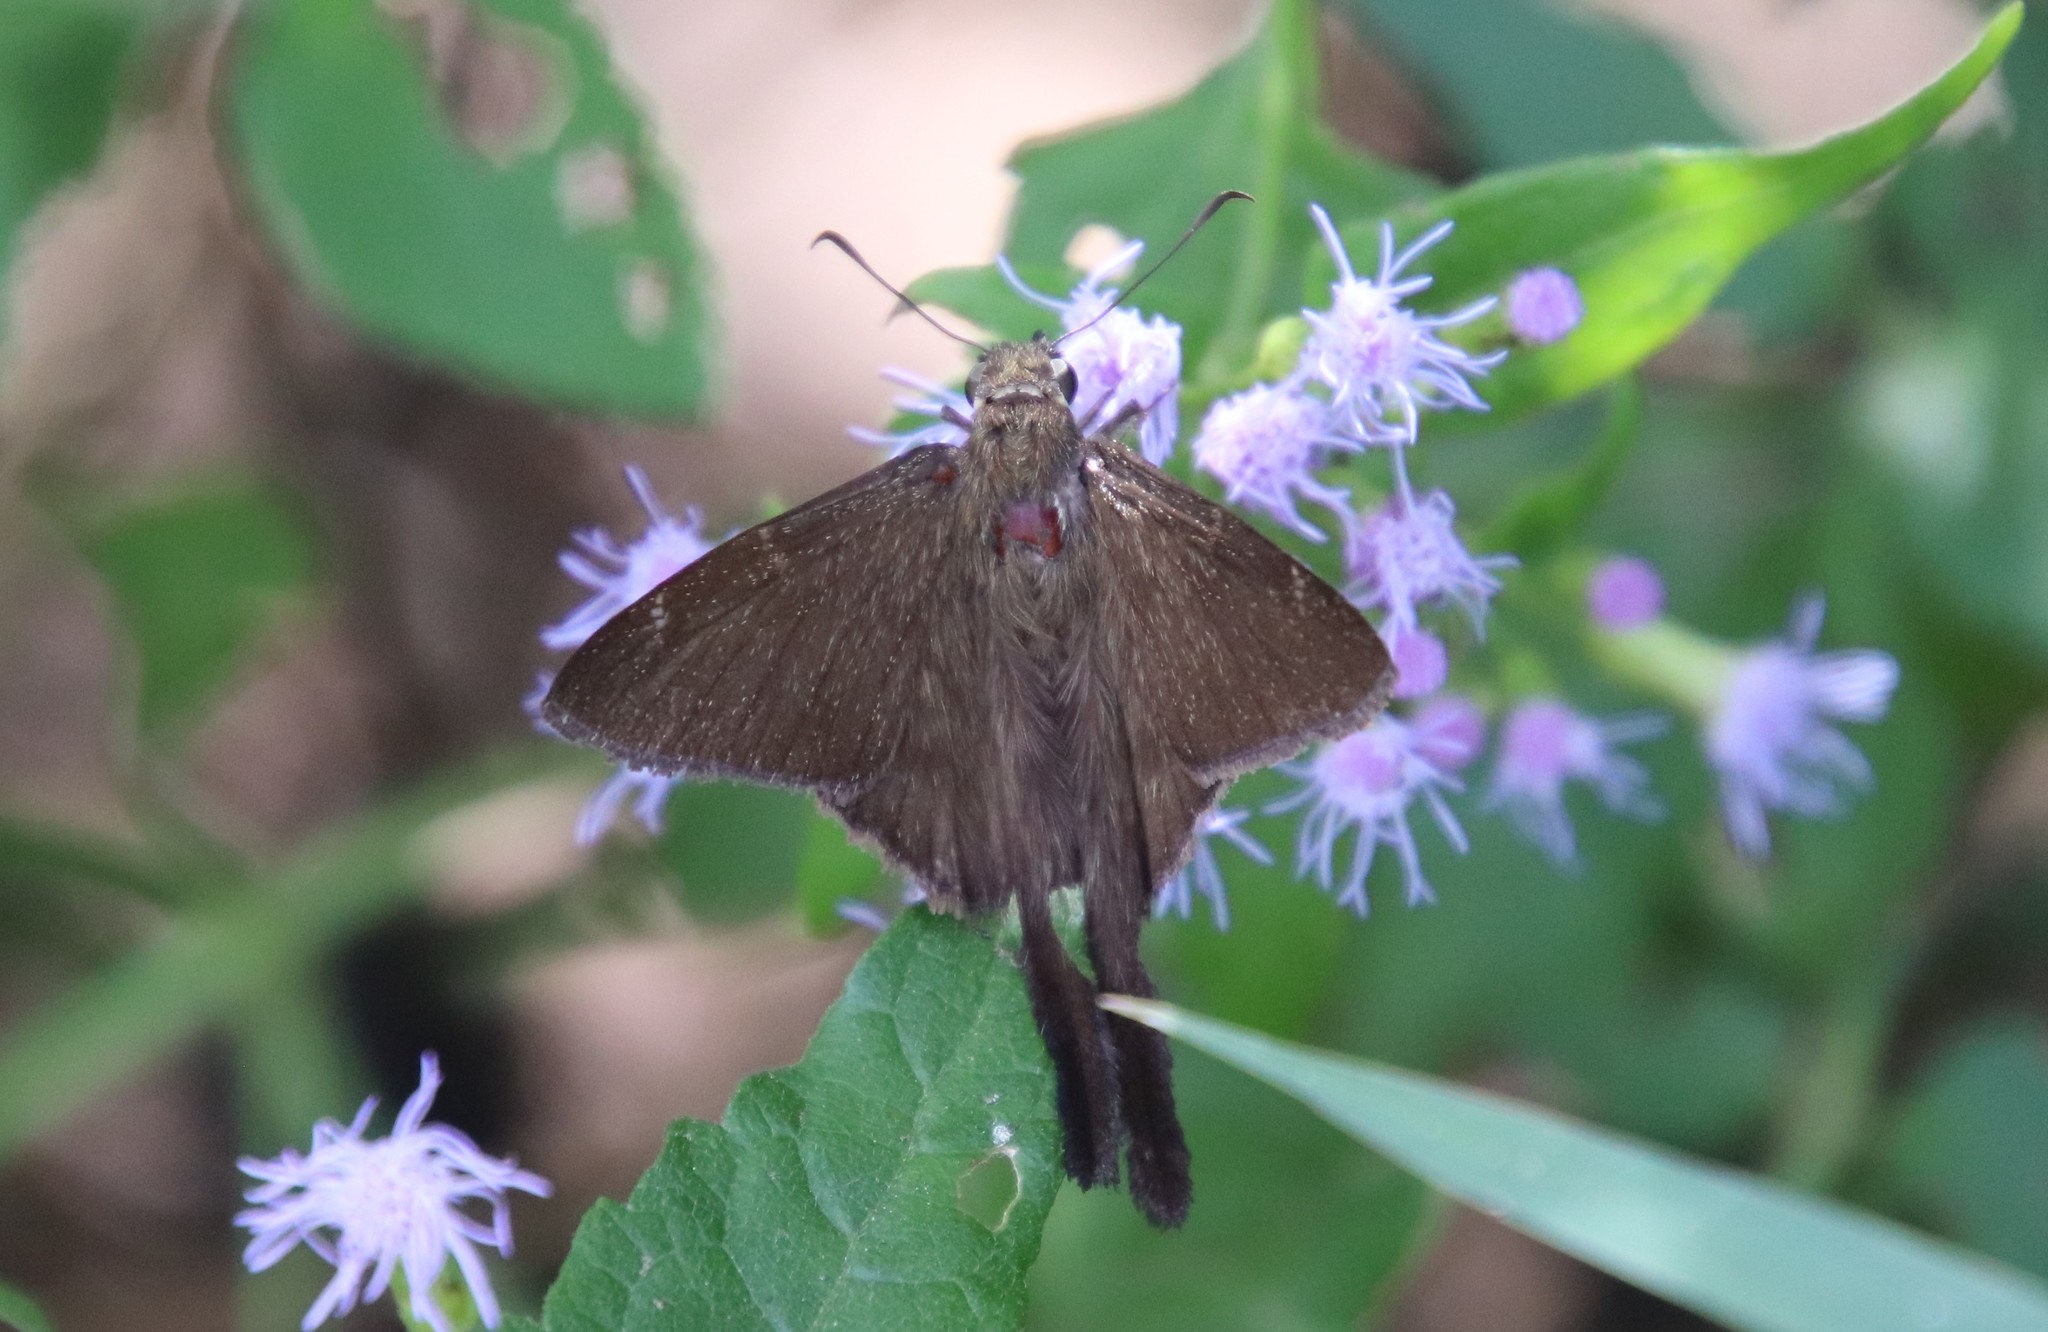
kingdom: Animalia
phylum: Arthropoda
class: Insecta
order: Lepidoptera
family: Hesperiidae
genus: Urbanus
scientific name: Urbanus procne
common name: Brown longtail
